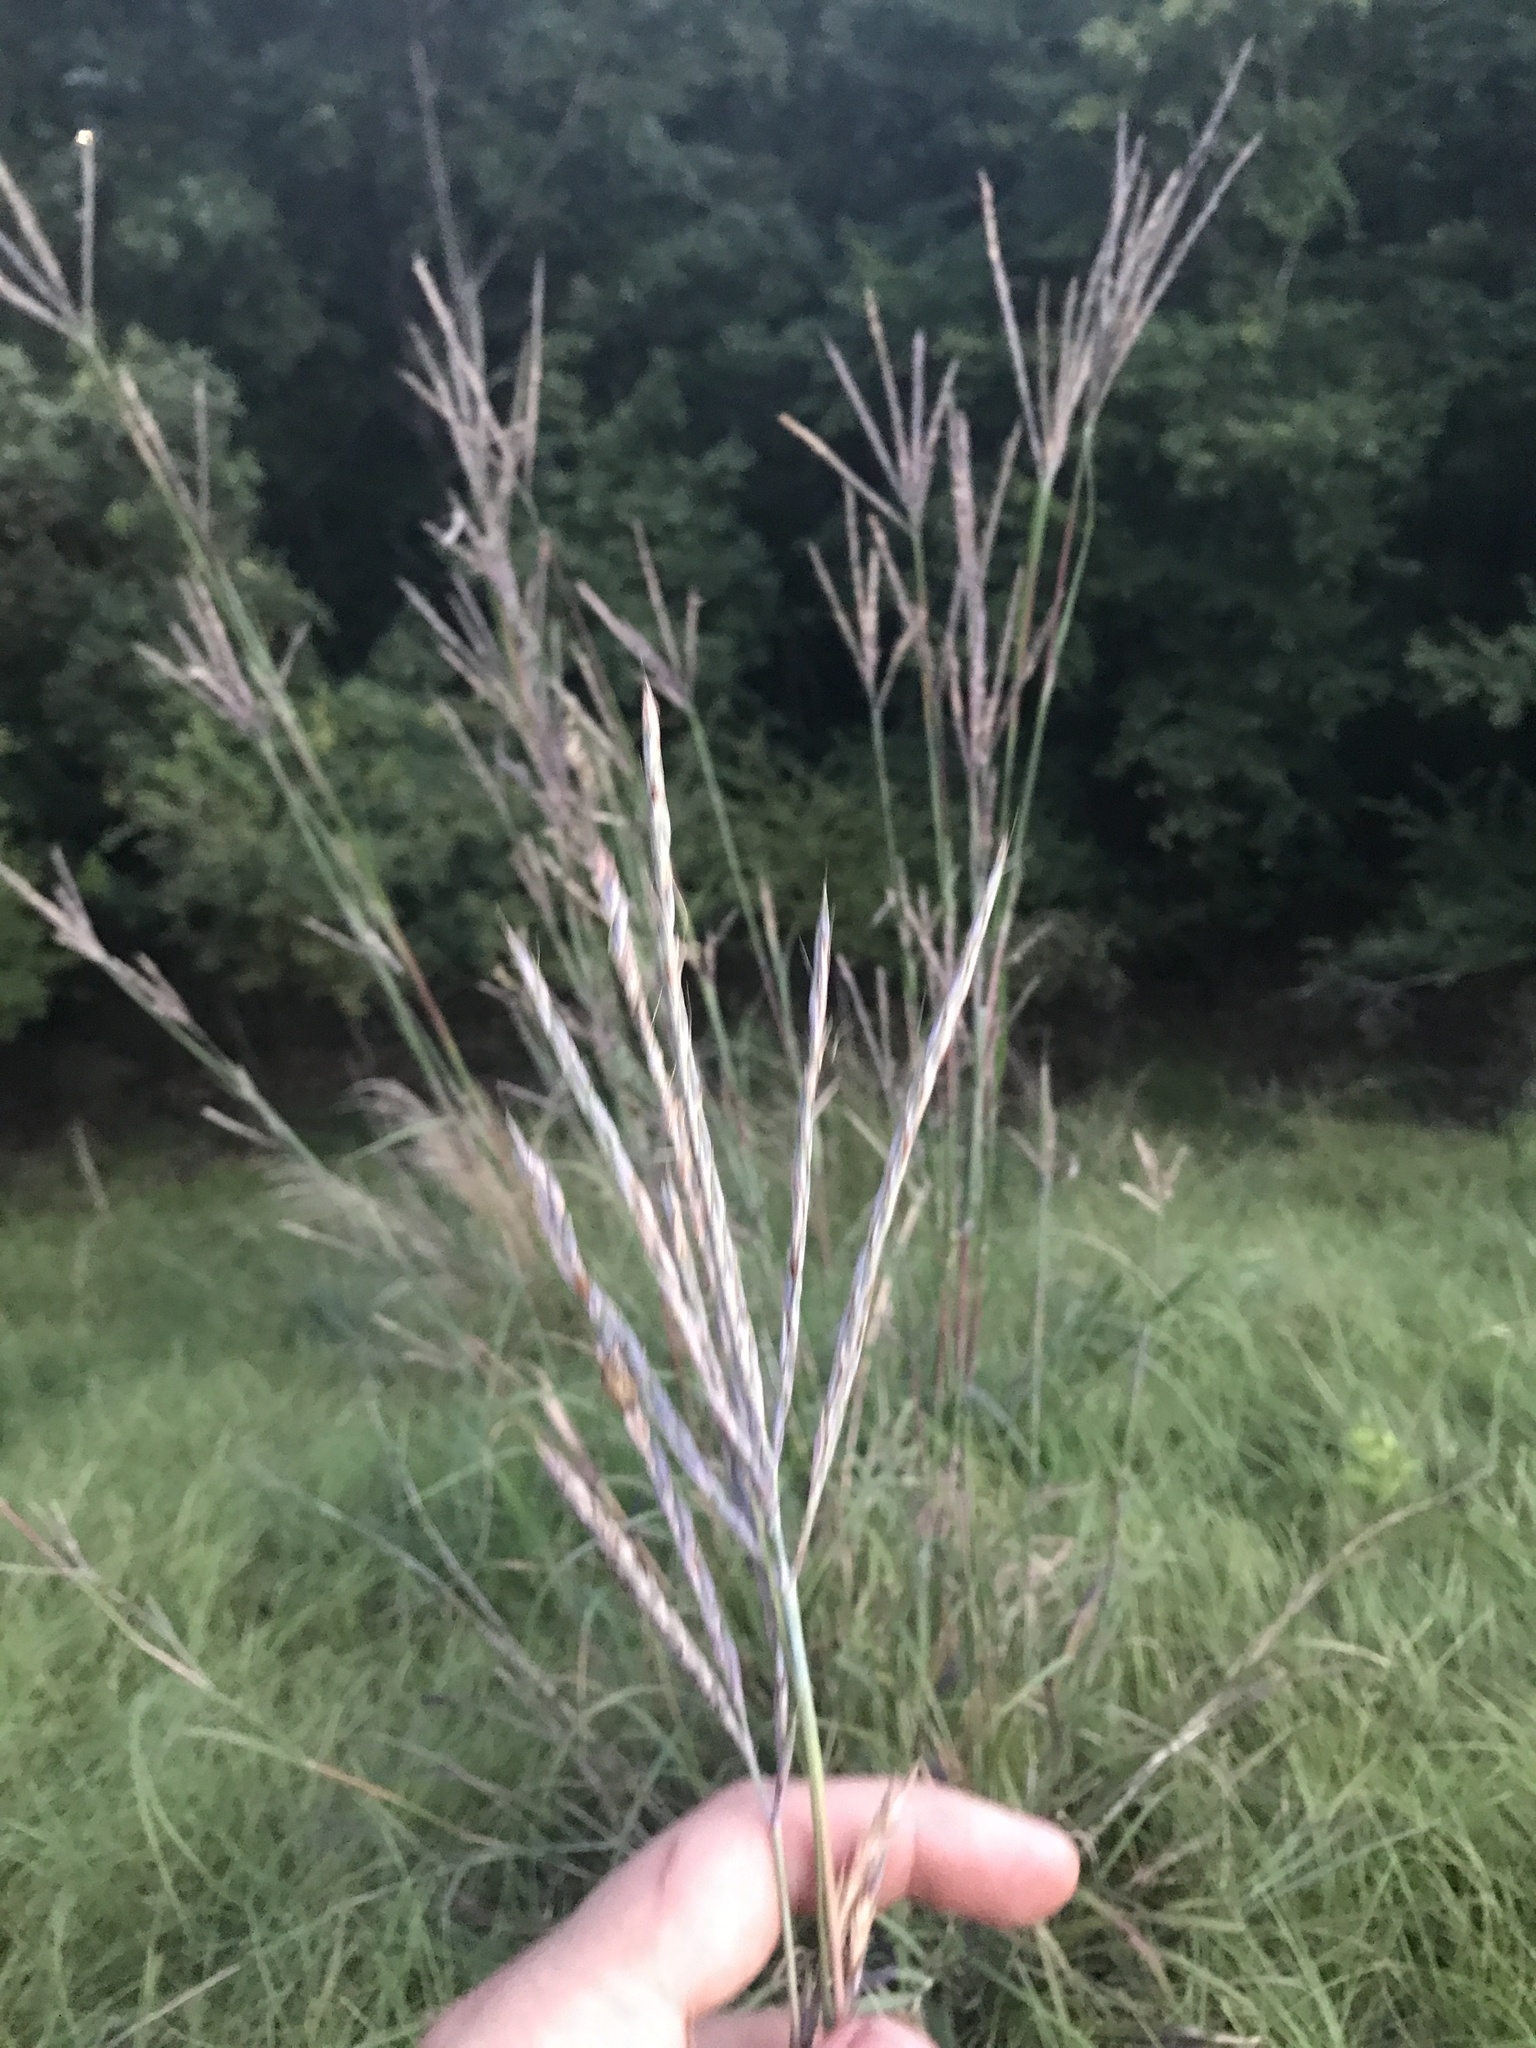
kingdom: Plantae
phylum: Tracheophyta
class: Liliopsida
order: Poales
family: Poaceae
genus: Andropogon
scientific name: Andropogon gerardi
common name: Big bluestem
